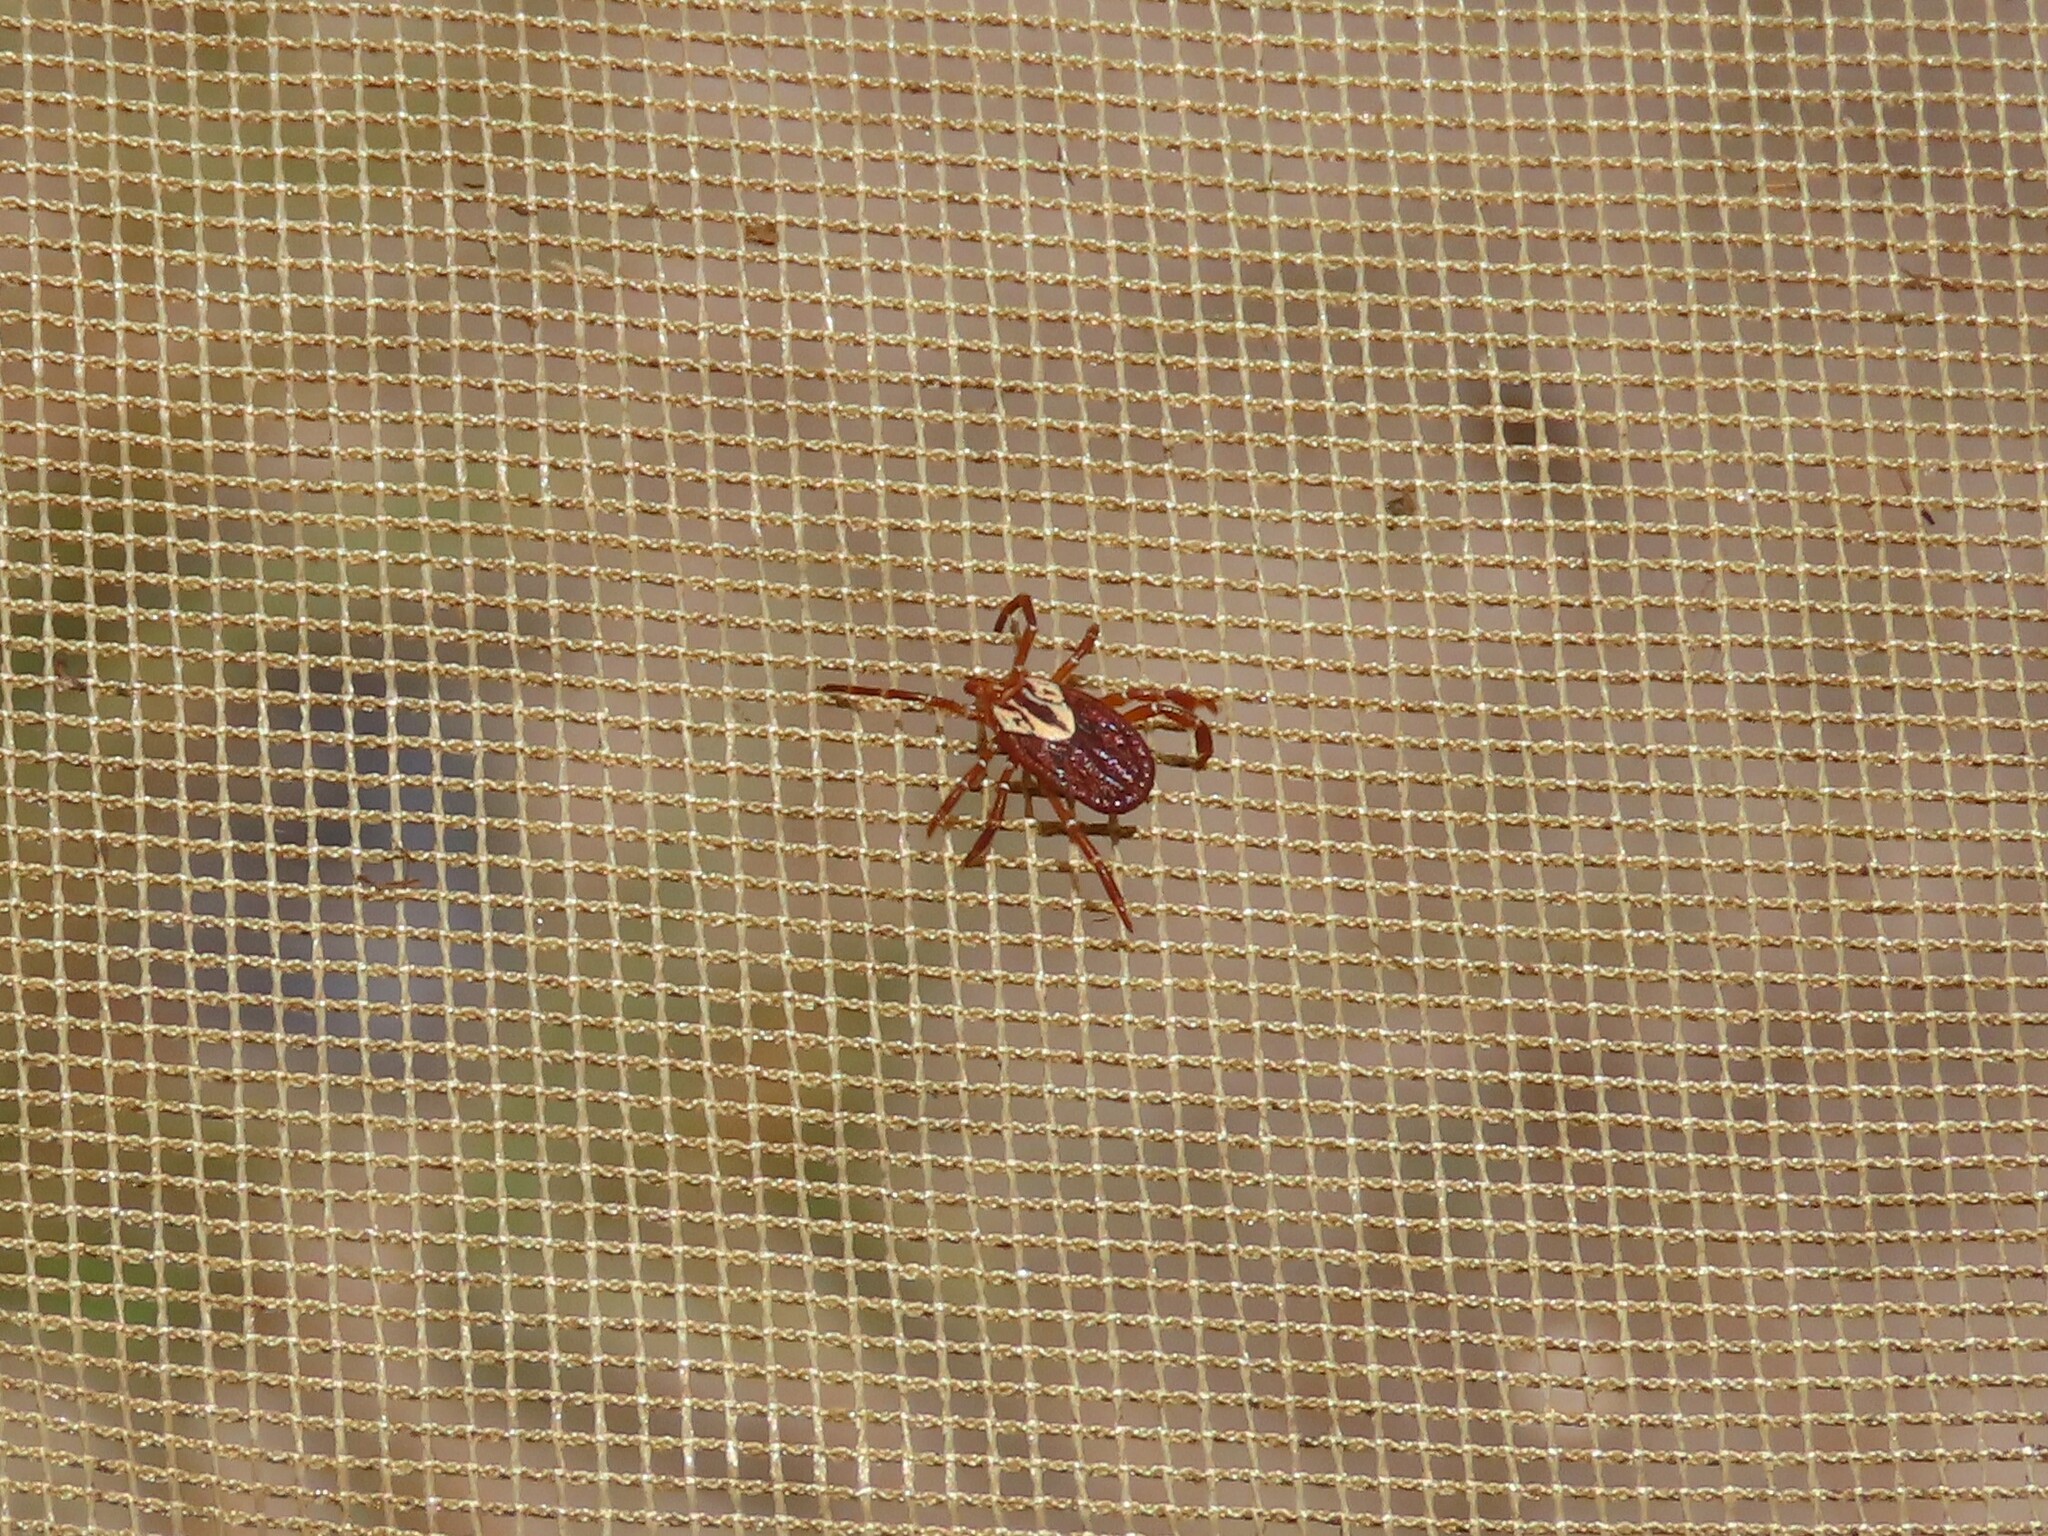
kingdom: Animalia
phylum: Arthropoda
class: Arachnida
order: Ixodida
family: Ixodidae
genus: Amblyomma
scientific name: Amblyomma maculatum
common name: Gulf coast tick
